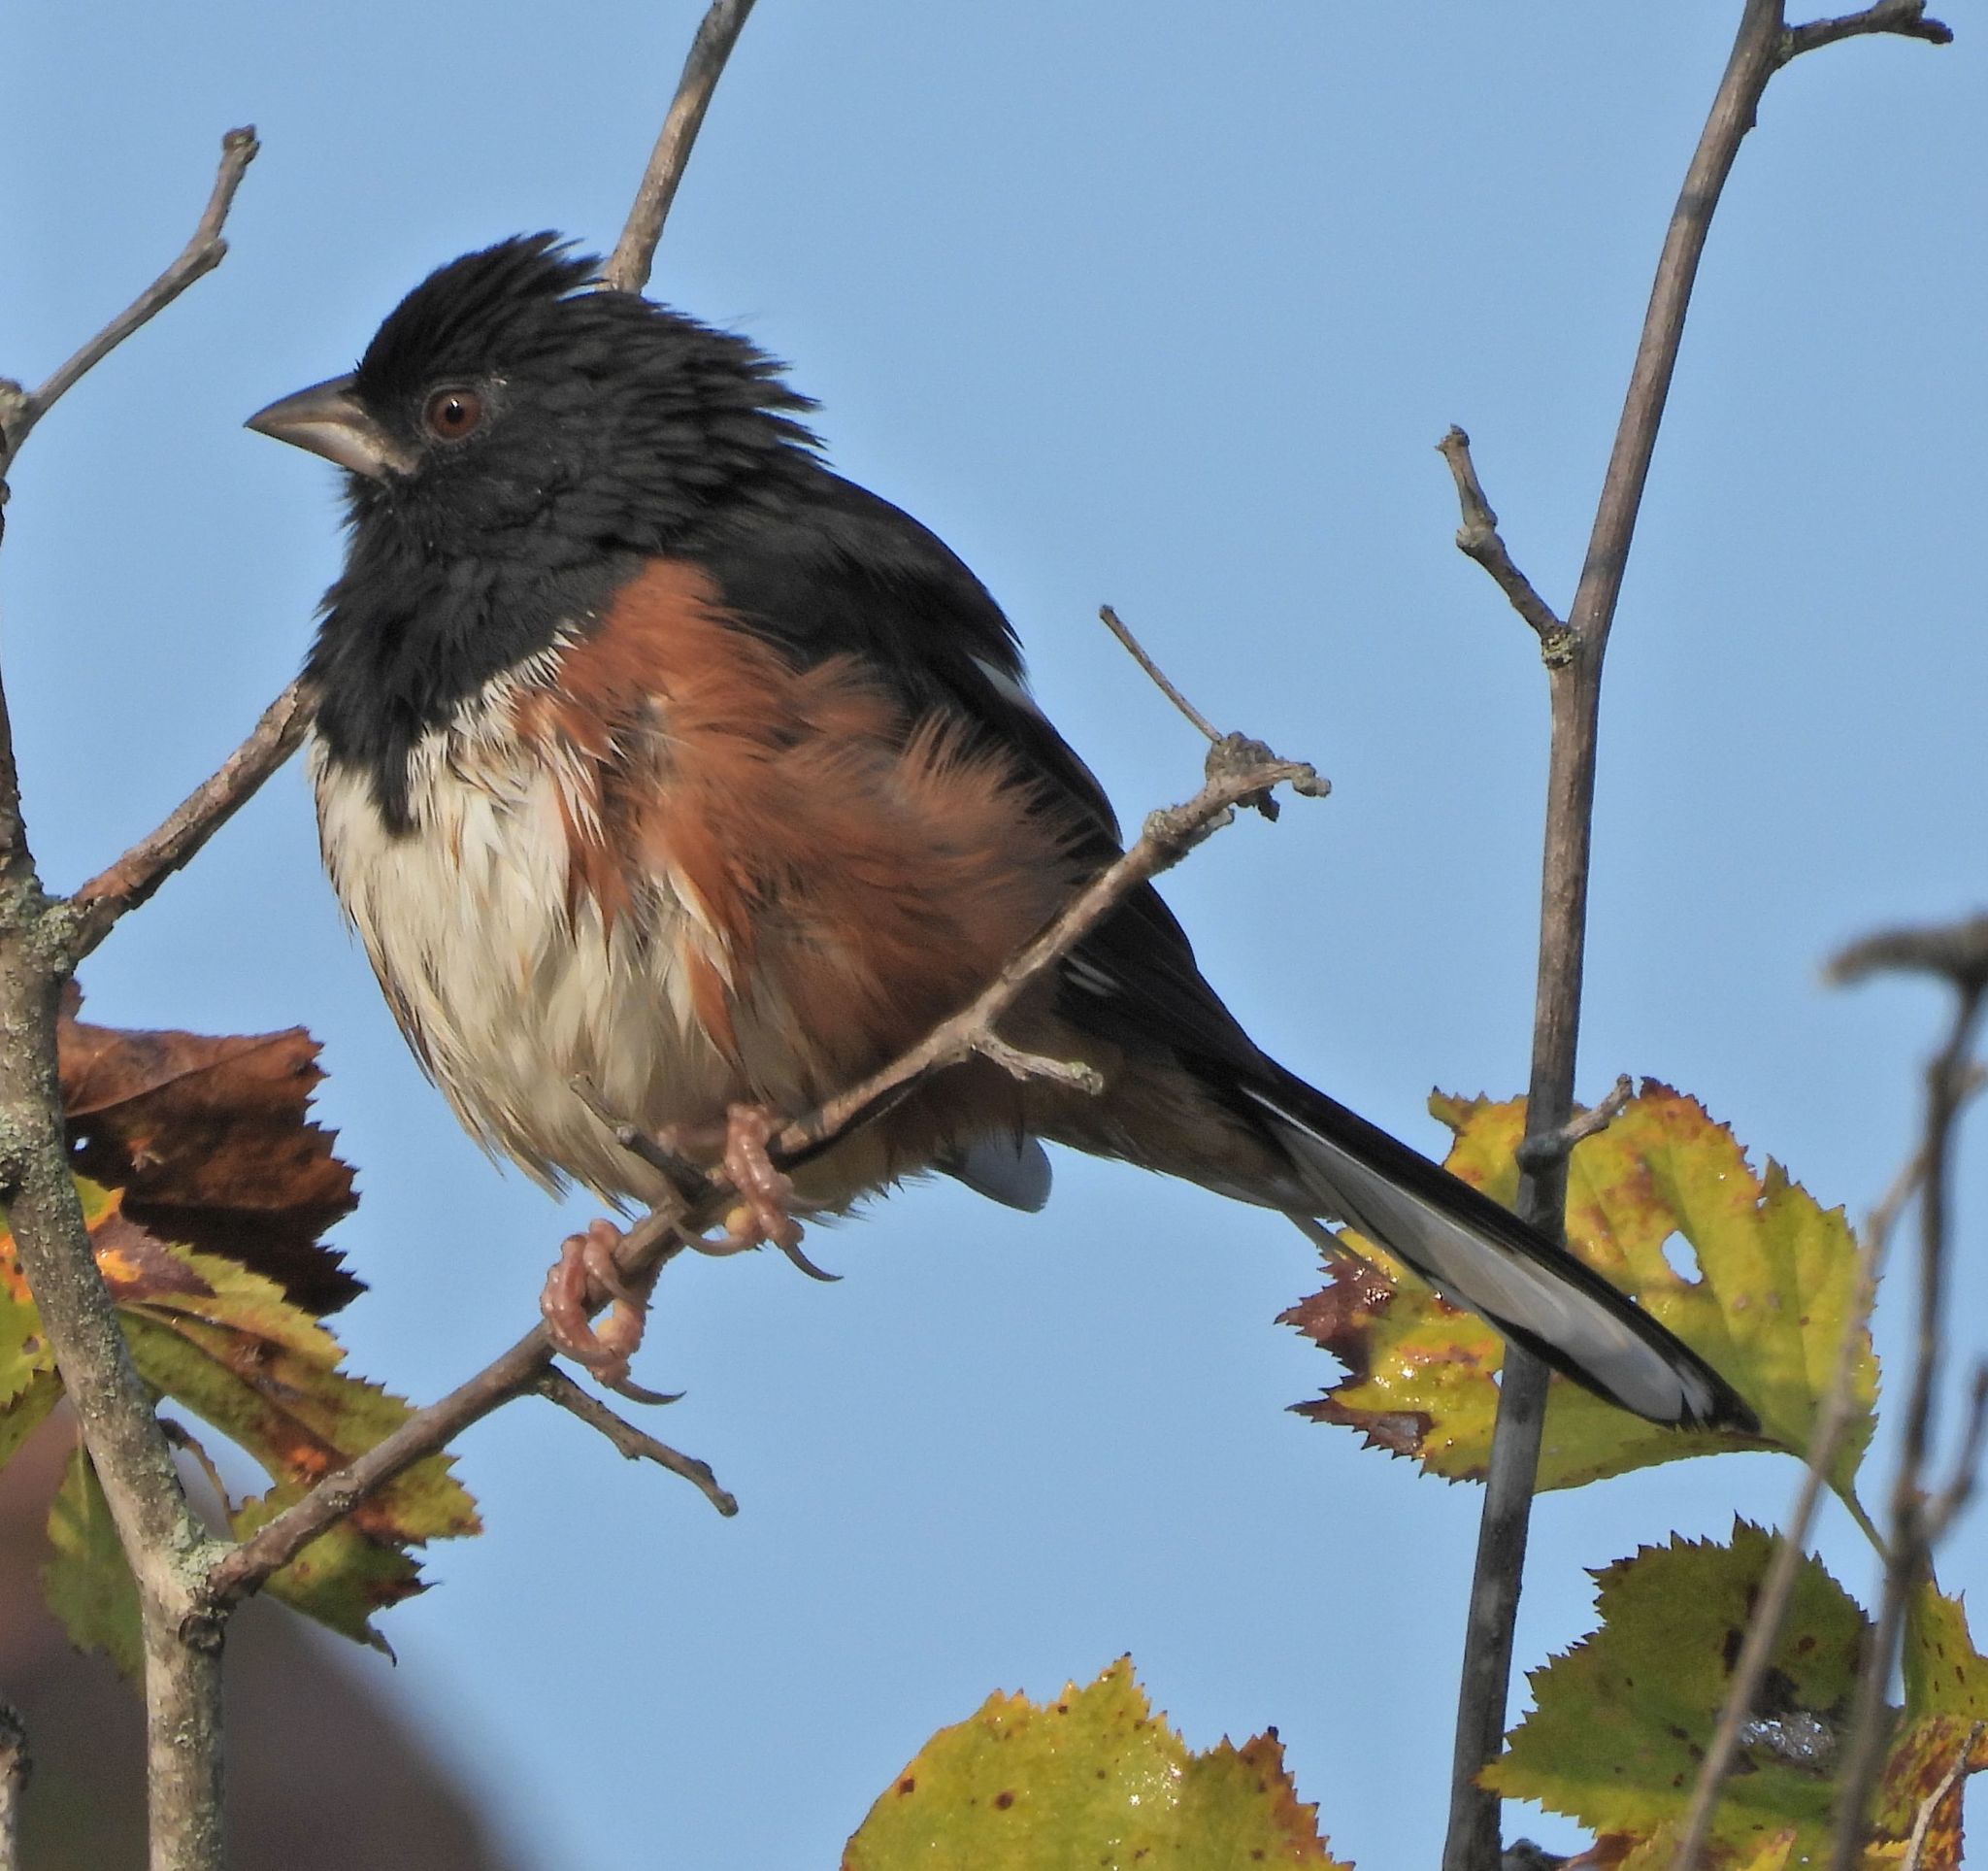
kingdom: Animalia
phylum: Chordata
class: Aves
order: Passeriformes
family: Passerellidae
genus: Pipilo
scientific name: Pipilo erythrophthalmus
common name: Eastern towhee
